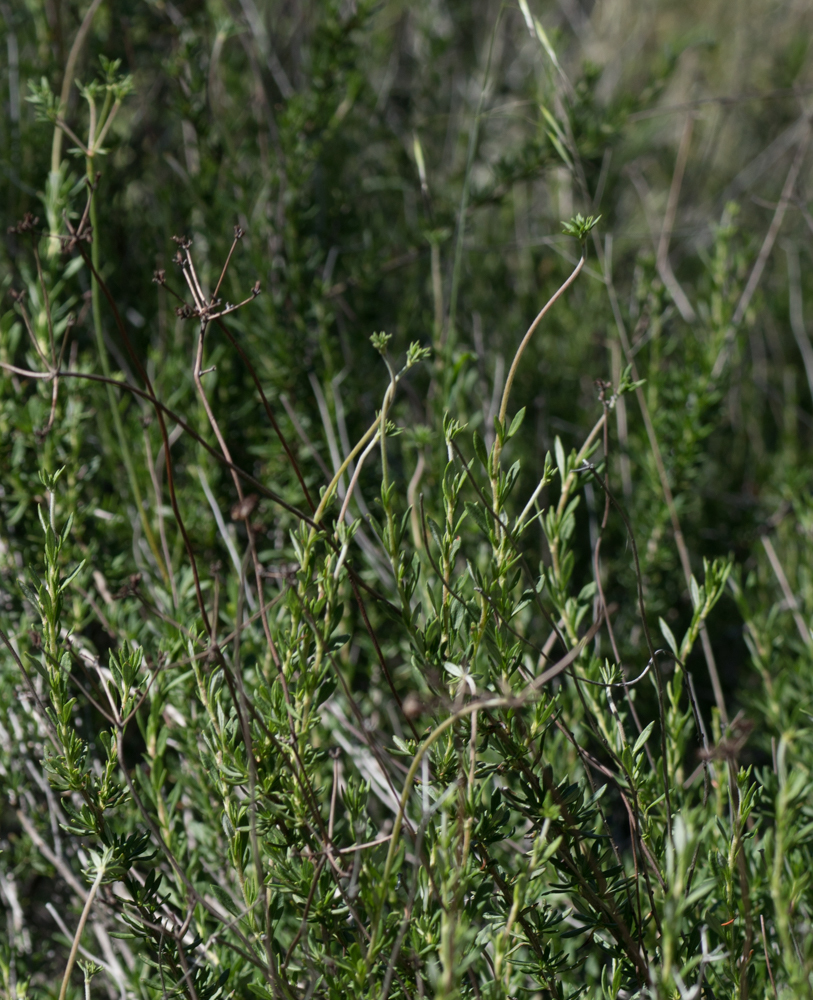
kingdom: Plantae
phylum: Tracheophyta
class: Magnoliopsida
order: Caryophyllales
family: Polygonaceae
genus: Eriogonum
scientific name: Eriogonum fasciculatum
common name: California wild buckwheat
